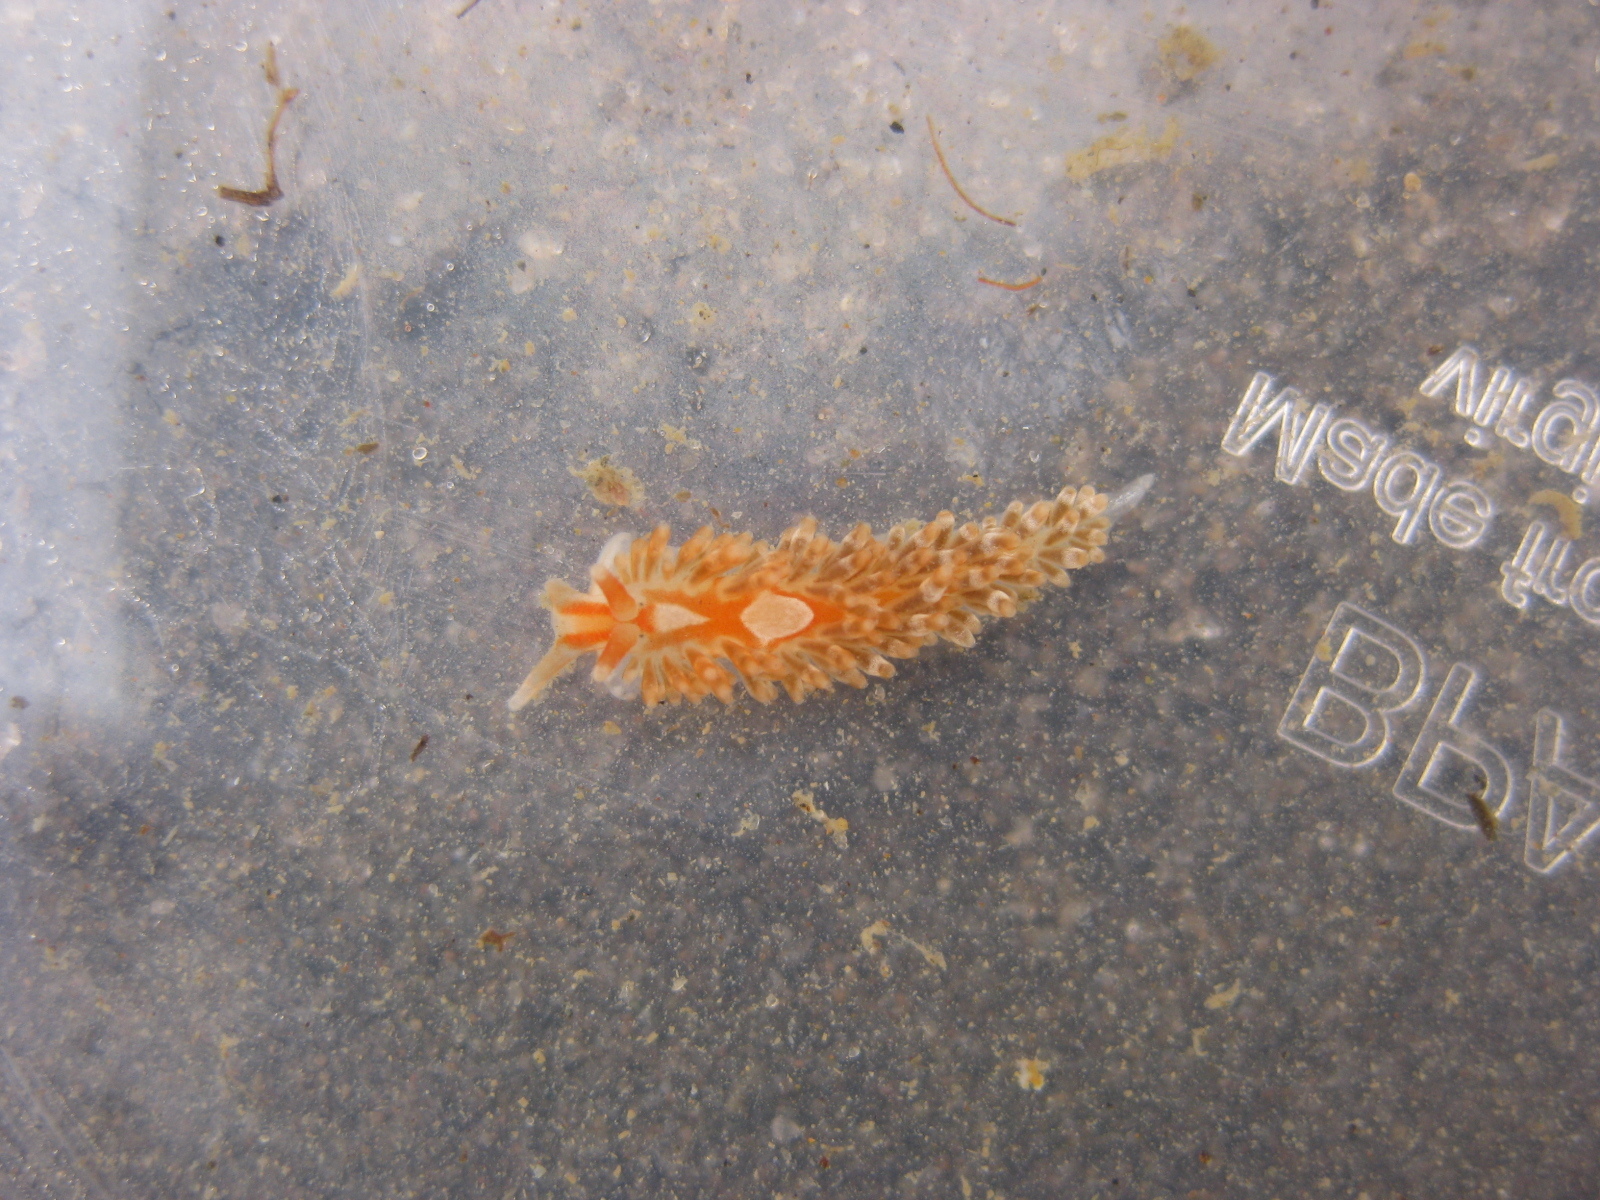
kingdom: Animalia
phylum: Mollusca
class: Gastropoda
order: Nudibranchia
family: Aeolidiidae
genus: Anteaeolidiella
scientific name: Anteaeolidiella lurana
